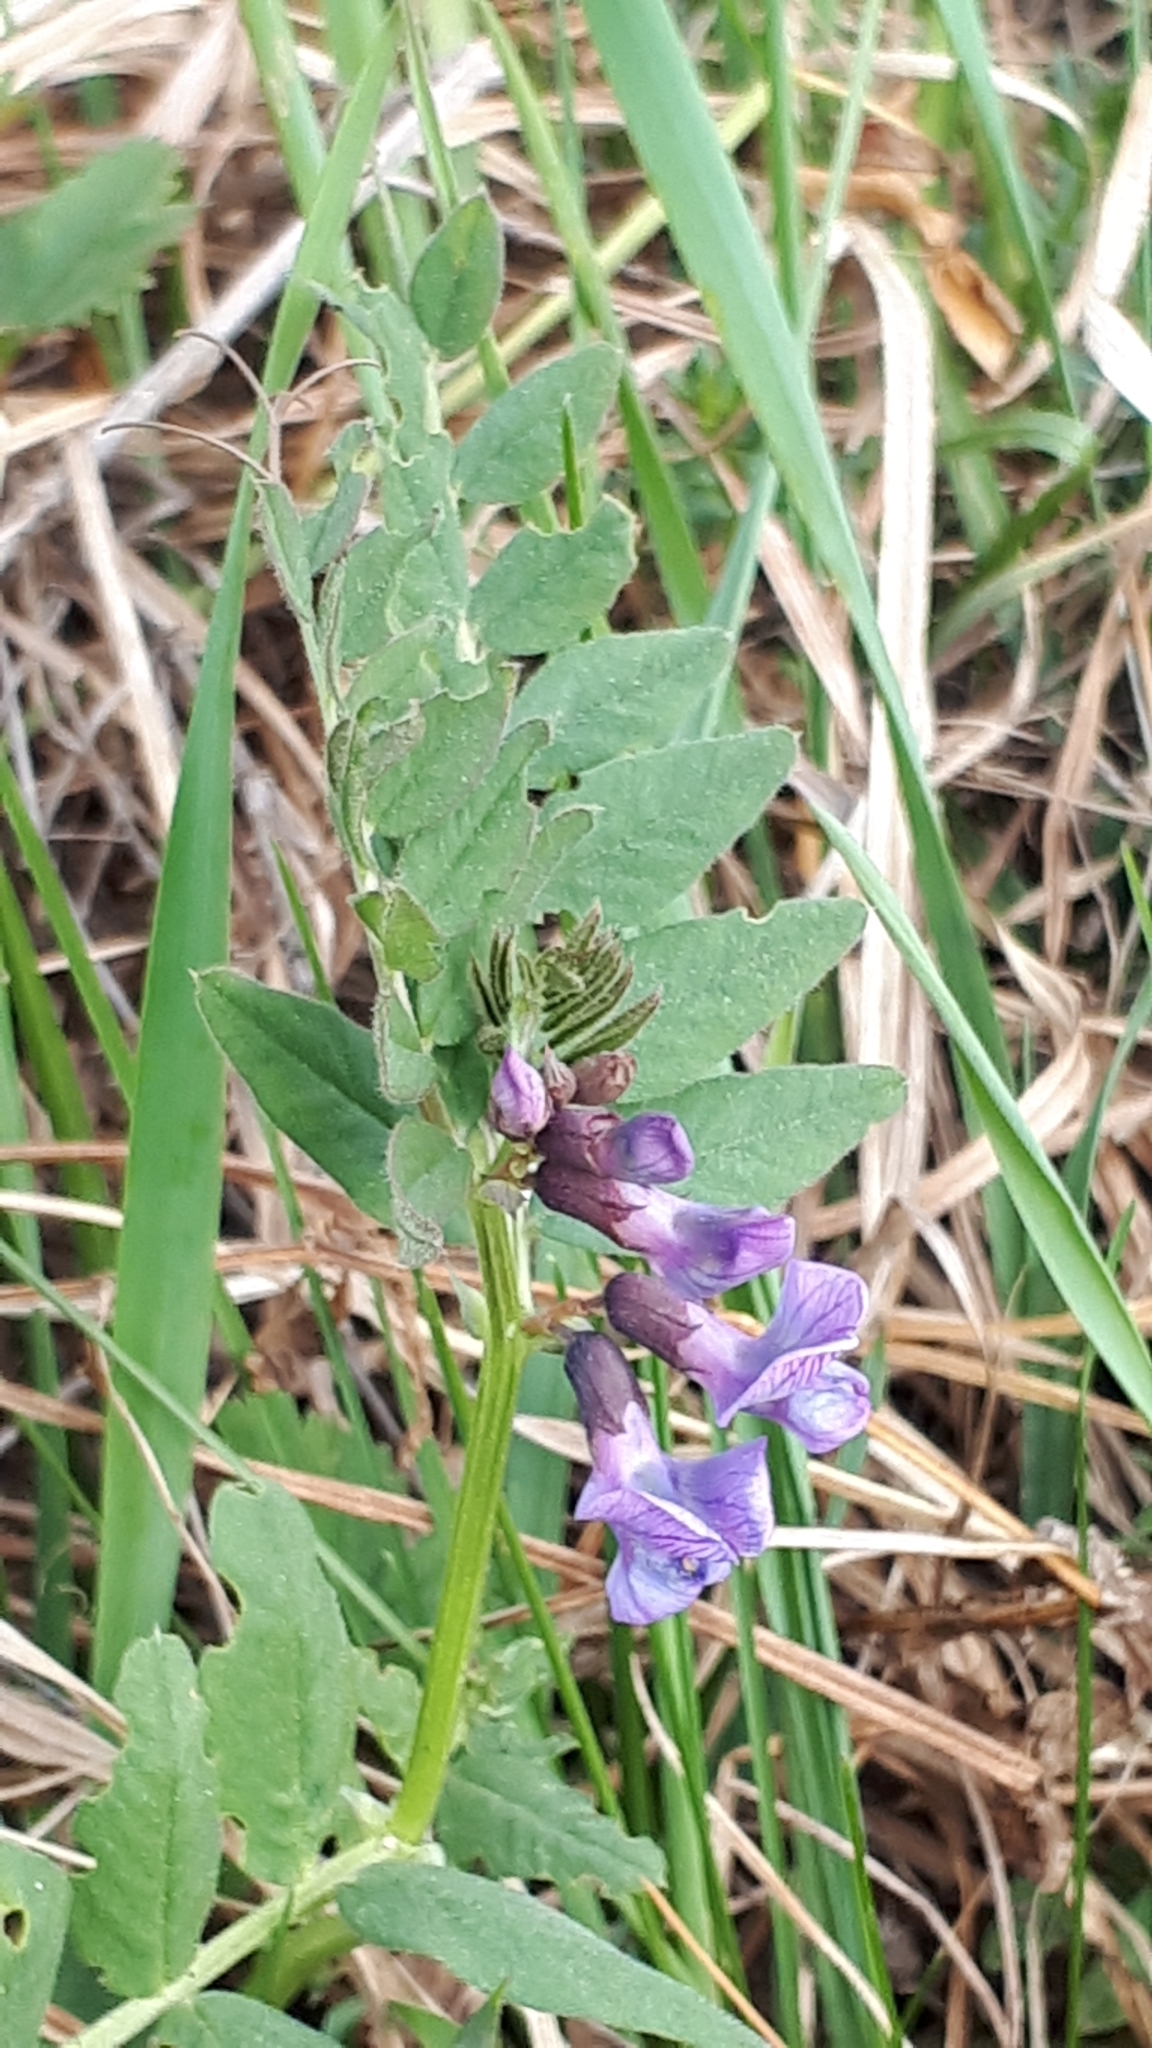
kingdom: Plantae
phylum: Tracheophyta
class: Magnoliopsida
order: Fabales
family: Fabaceae
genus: Vicia
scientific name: Vicia sepium
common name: Bush vetch
